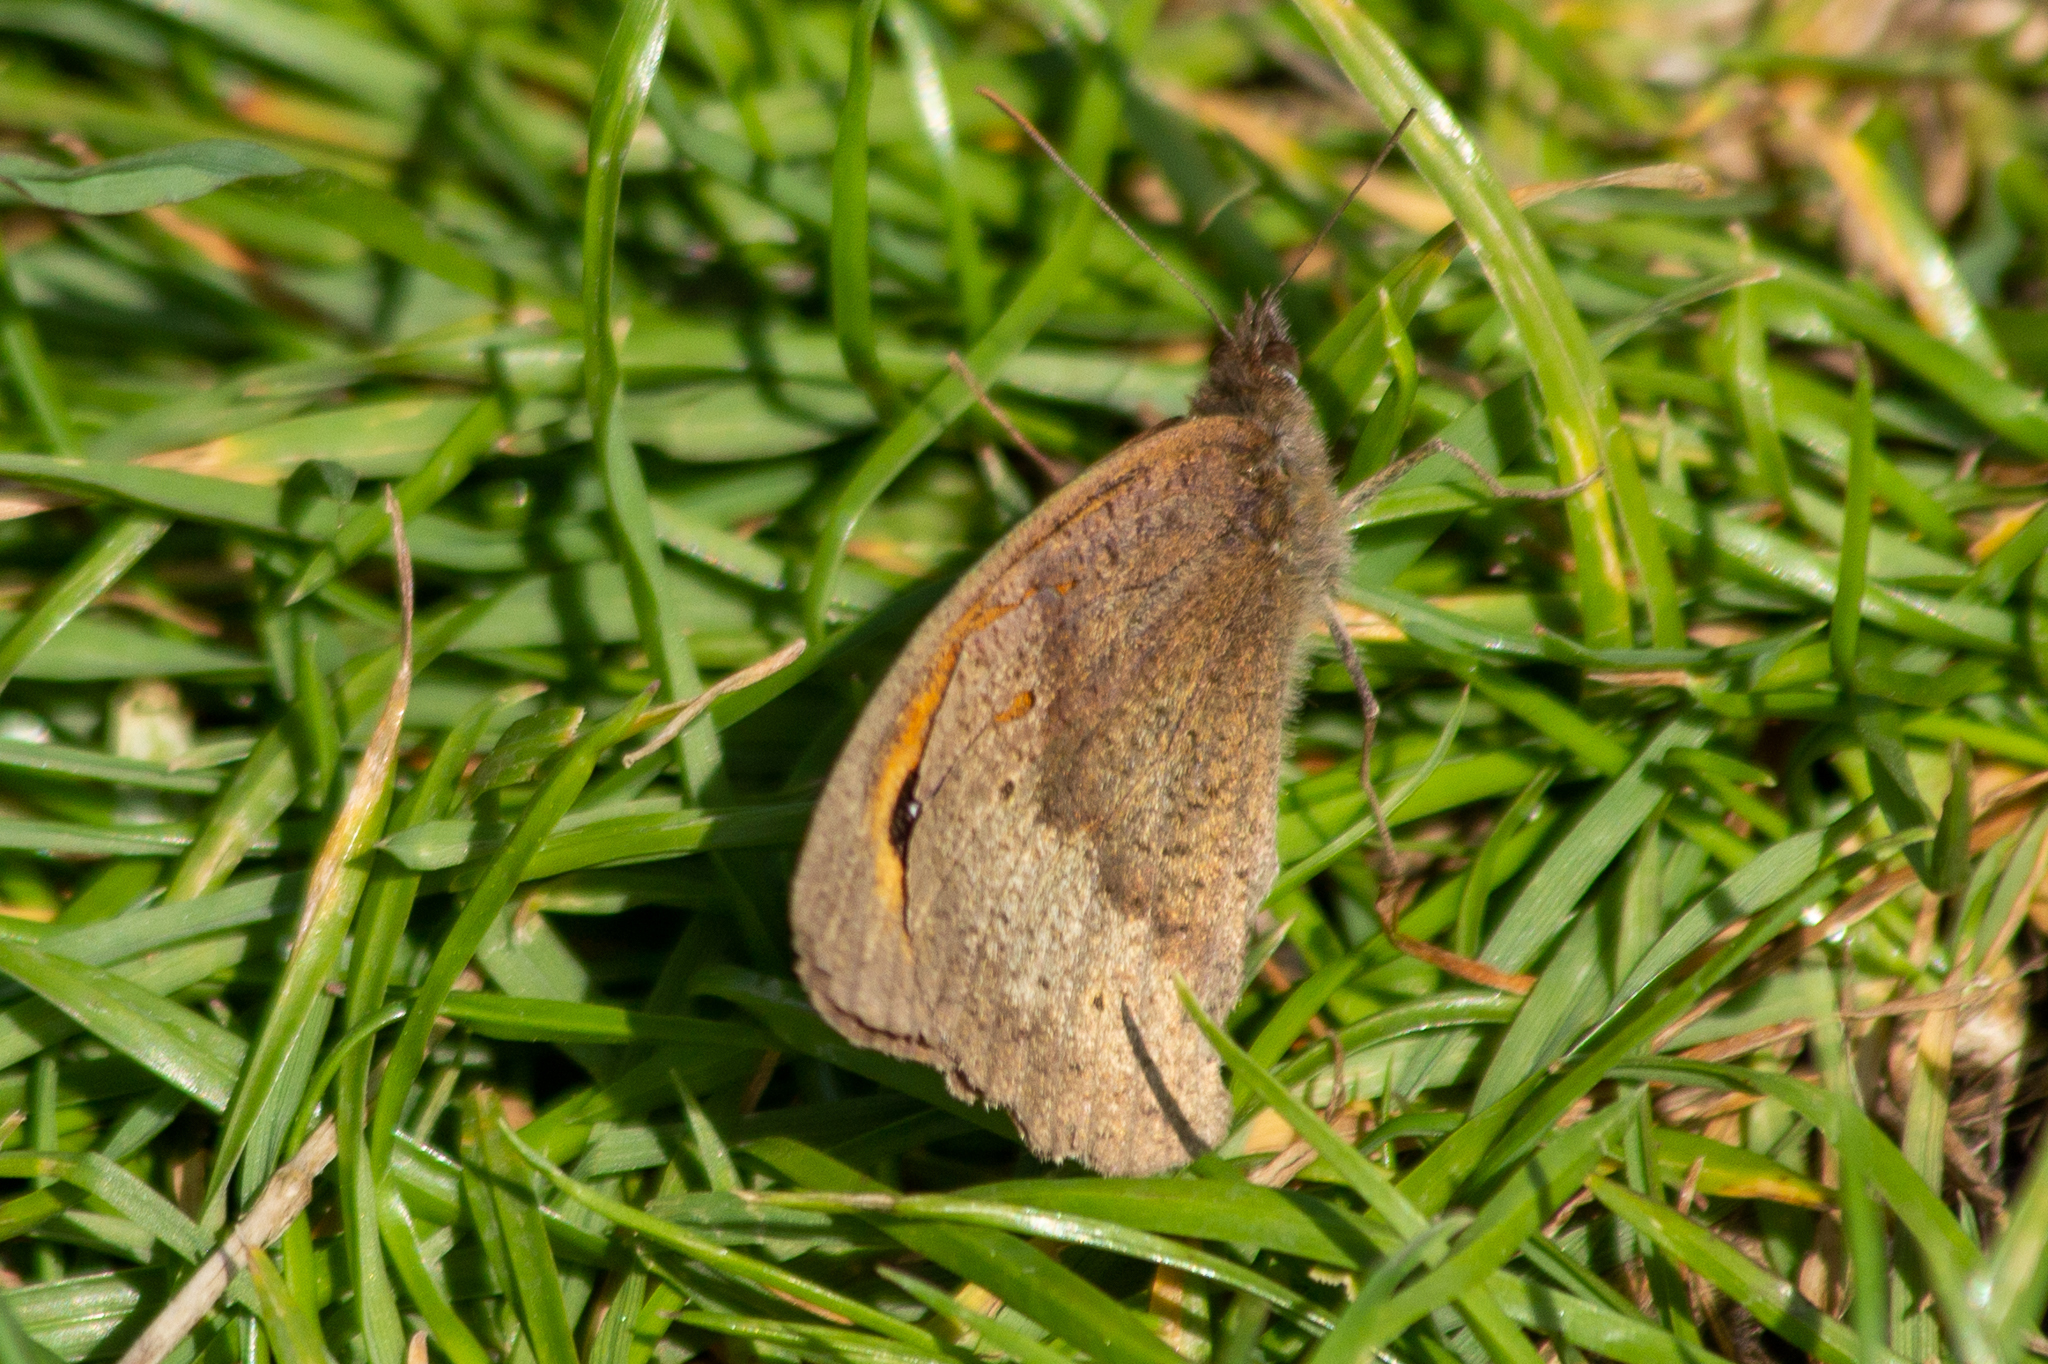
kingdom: Animalia
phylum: Arthropoda
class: Insecta
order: Lepidoptera
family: Nymphalidae
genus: Maniola
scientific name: Maniola jurtina
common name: Meadow brown
